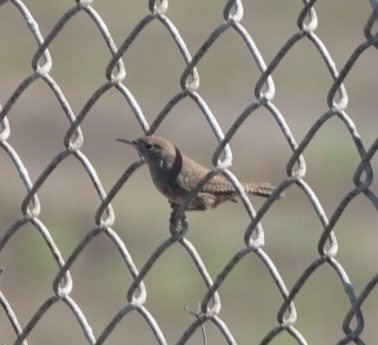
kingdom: Animalia
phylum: Chordata
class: Aves
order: Passeriformes
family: Troglodytidae
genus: Troglodytes
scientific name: Troglodytes aedon
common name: House wren
